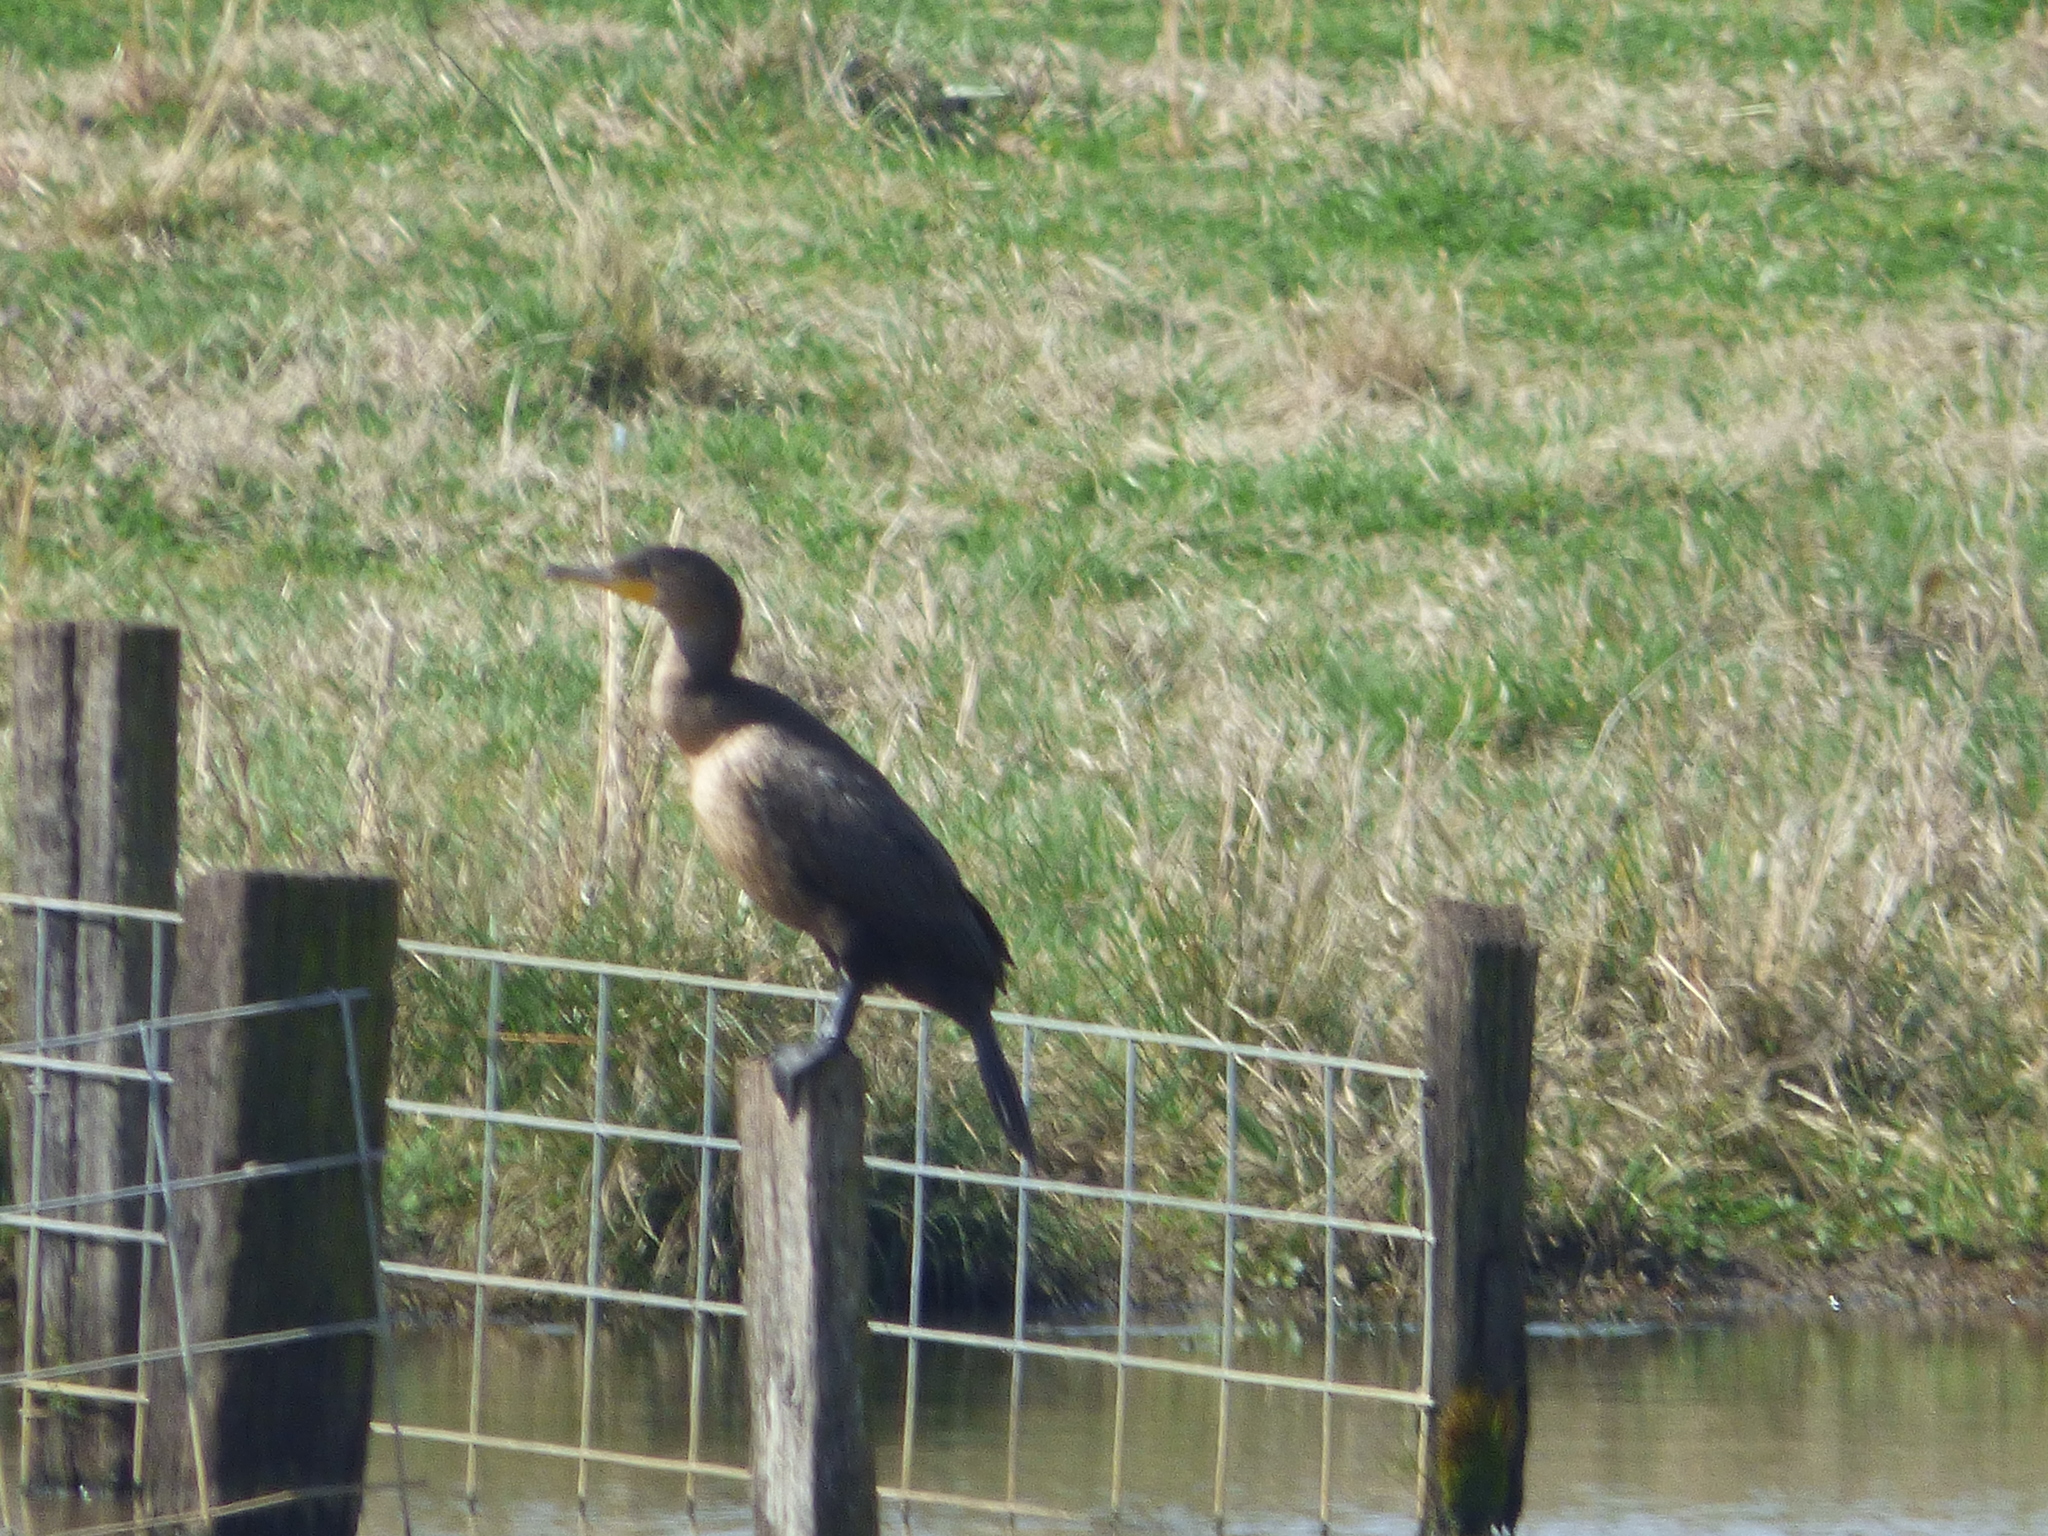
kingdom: Animalia
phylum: Chordata
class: Aves
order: Suliformes
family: Phalacrocoracidae
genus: Phalacrocorax
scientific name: Phalacrocorax auritus
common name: Double-crested cormorant
